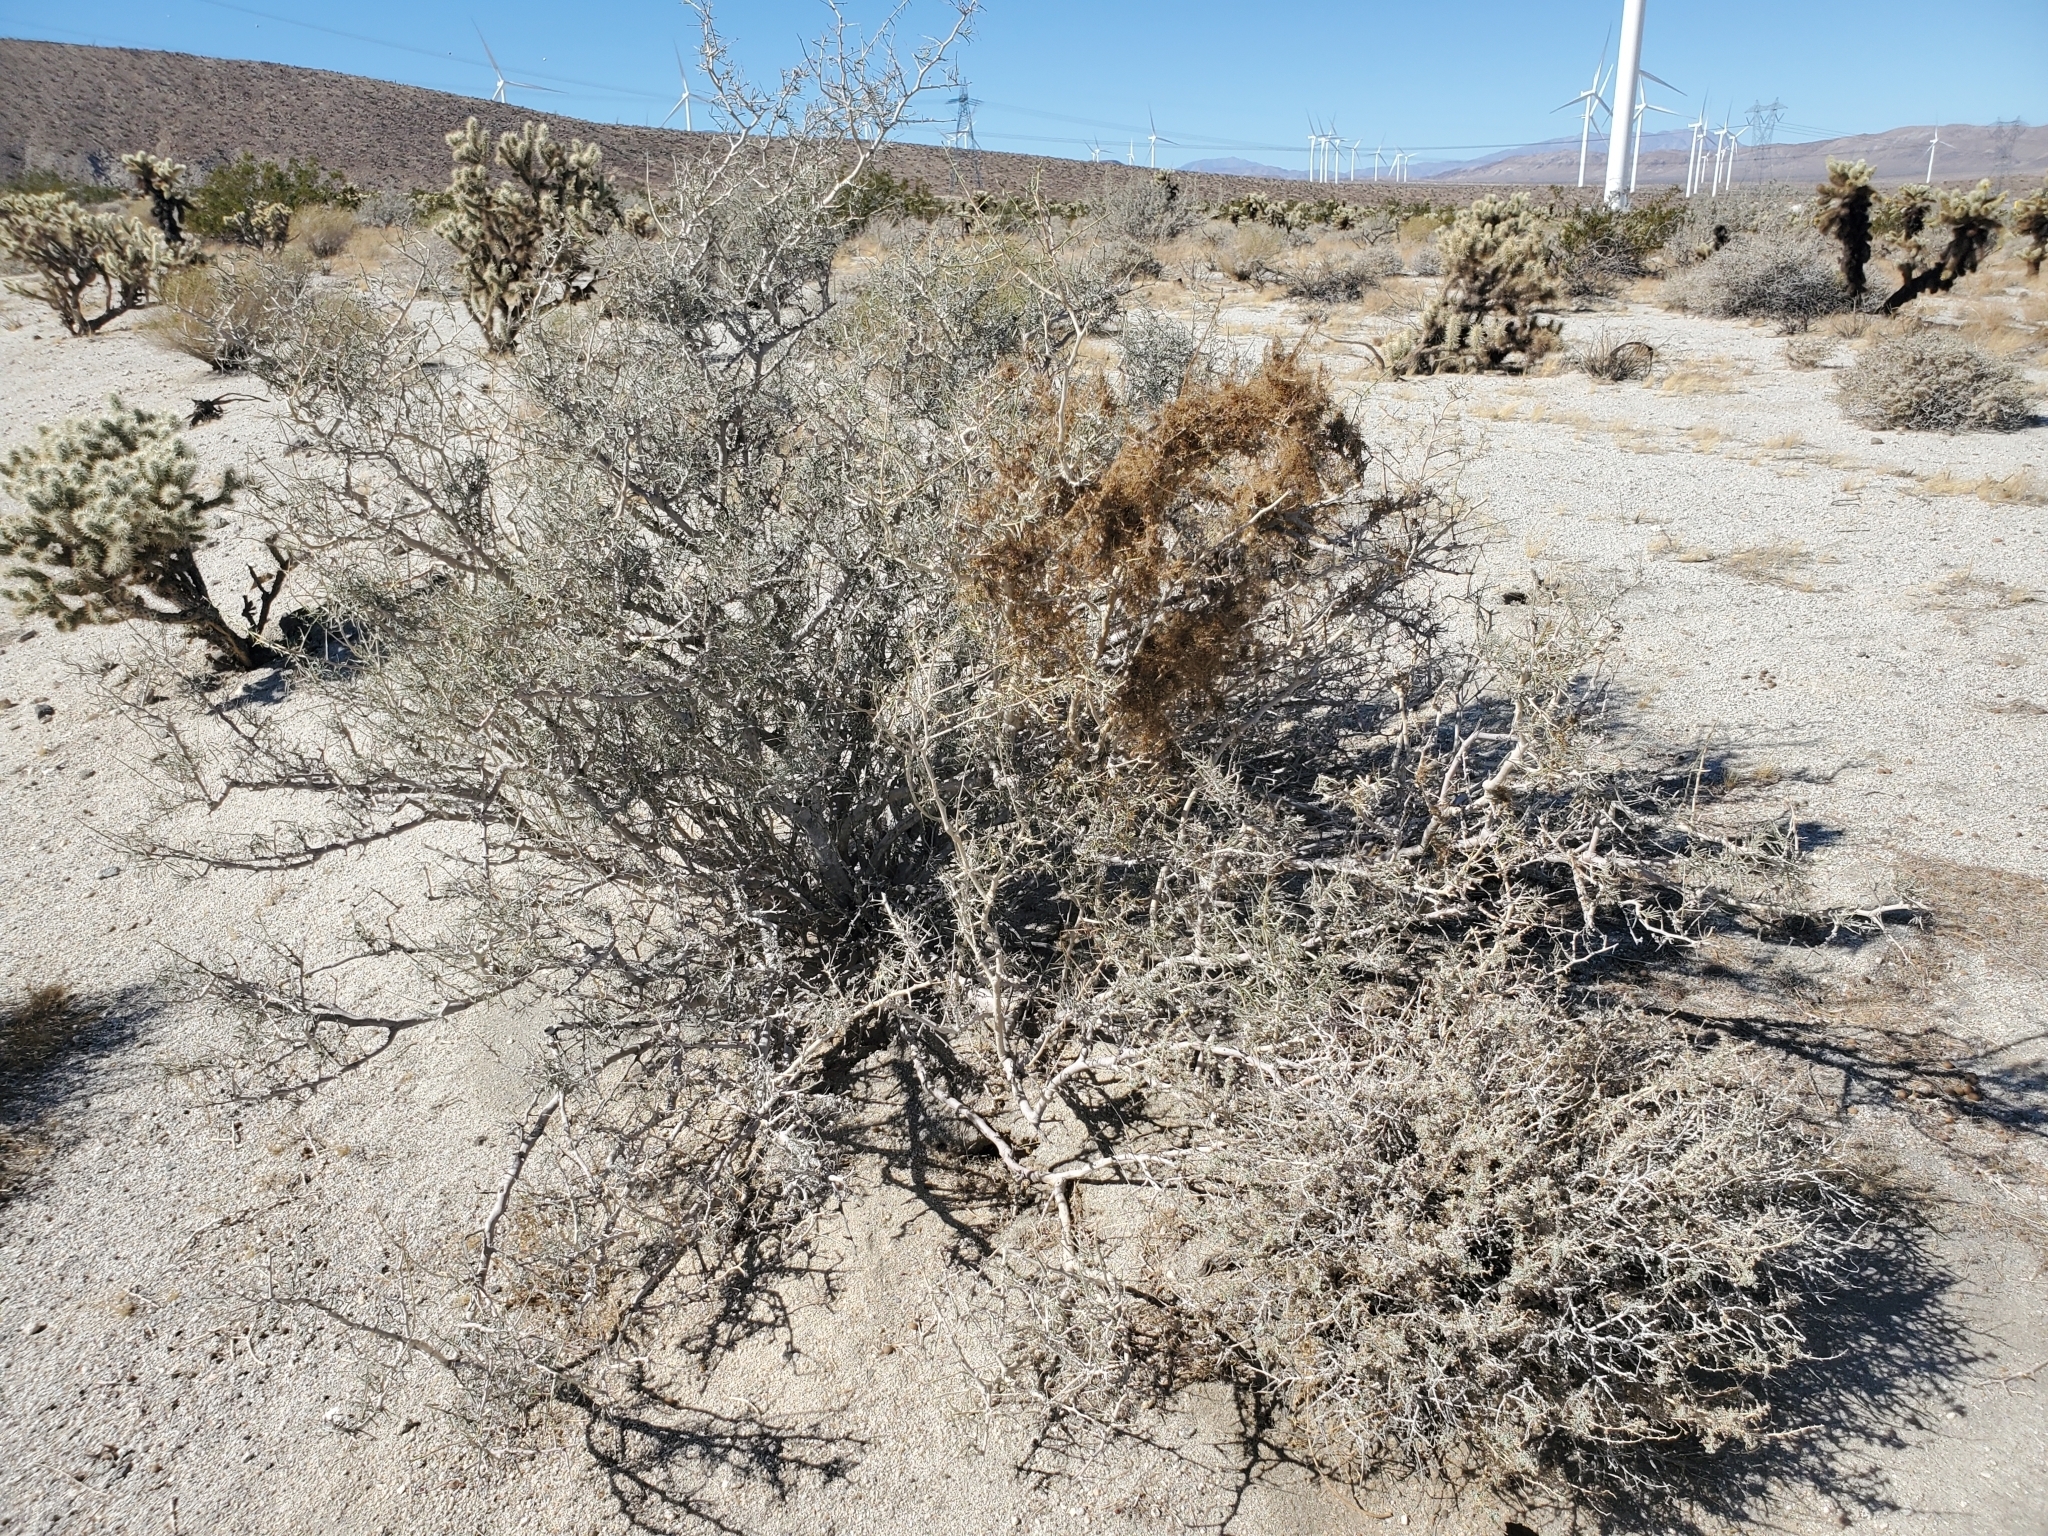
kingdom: Plantae
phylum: Tracheophyta
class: Magnoliopsida
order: Fabales
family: Fabaceae
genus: Psorothamnus
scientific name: Psorothamnus schottii
